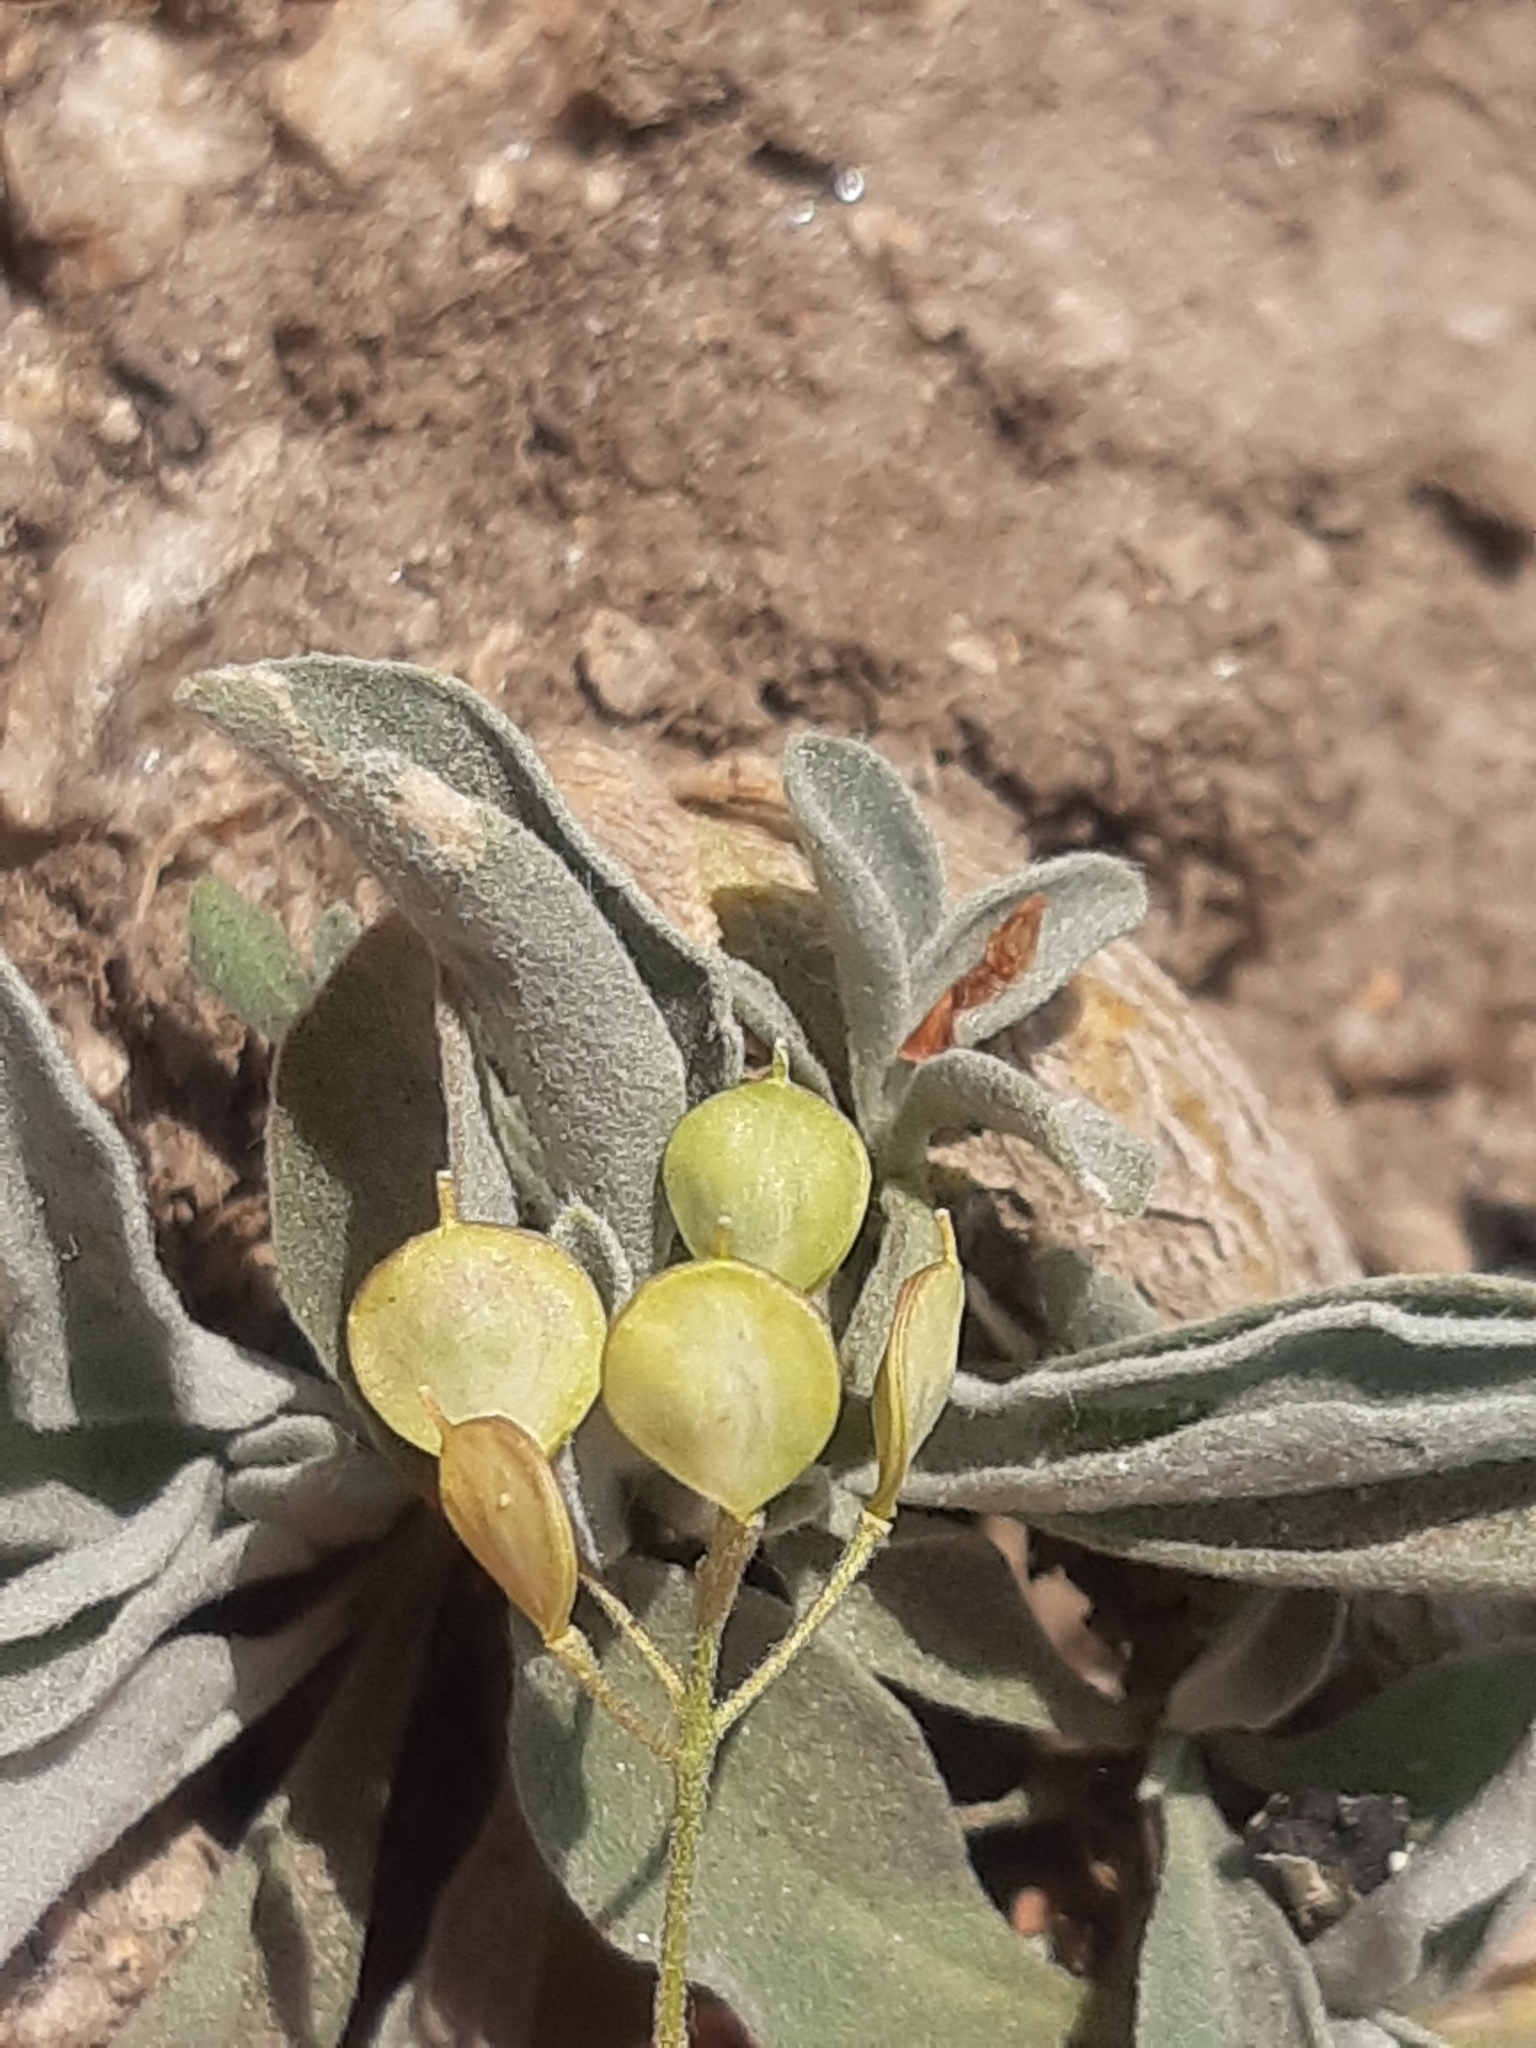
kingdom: Plantae
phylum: Tracheophyta
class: Magnoliopsida
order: Brassicales
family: Brassicaceae
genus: Aurinia
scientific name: Aurinia saxatilis
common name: Golden-tuft alyssum
